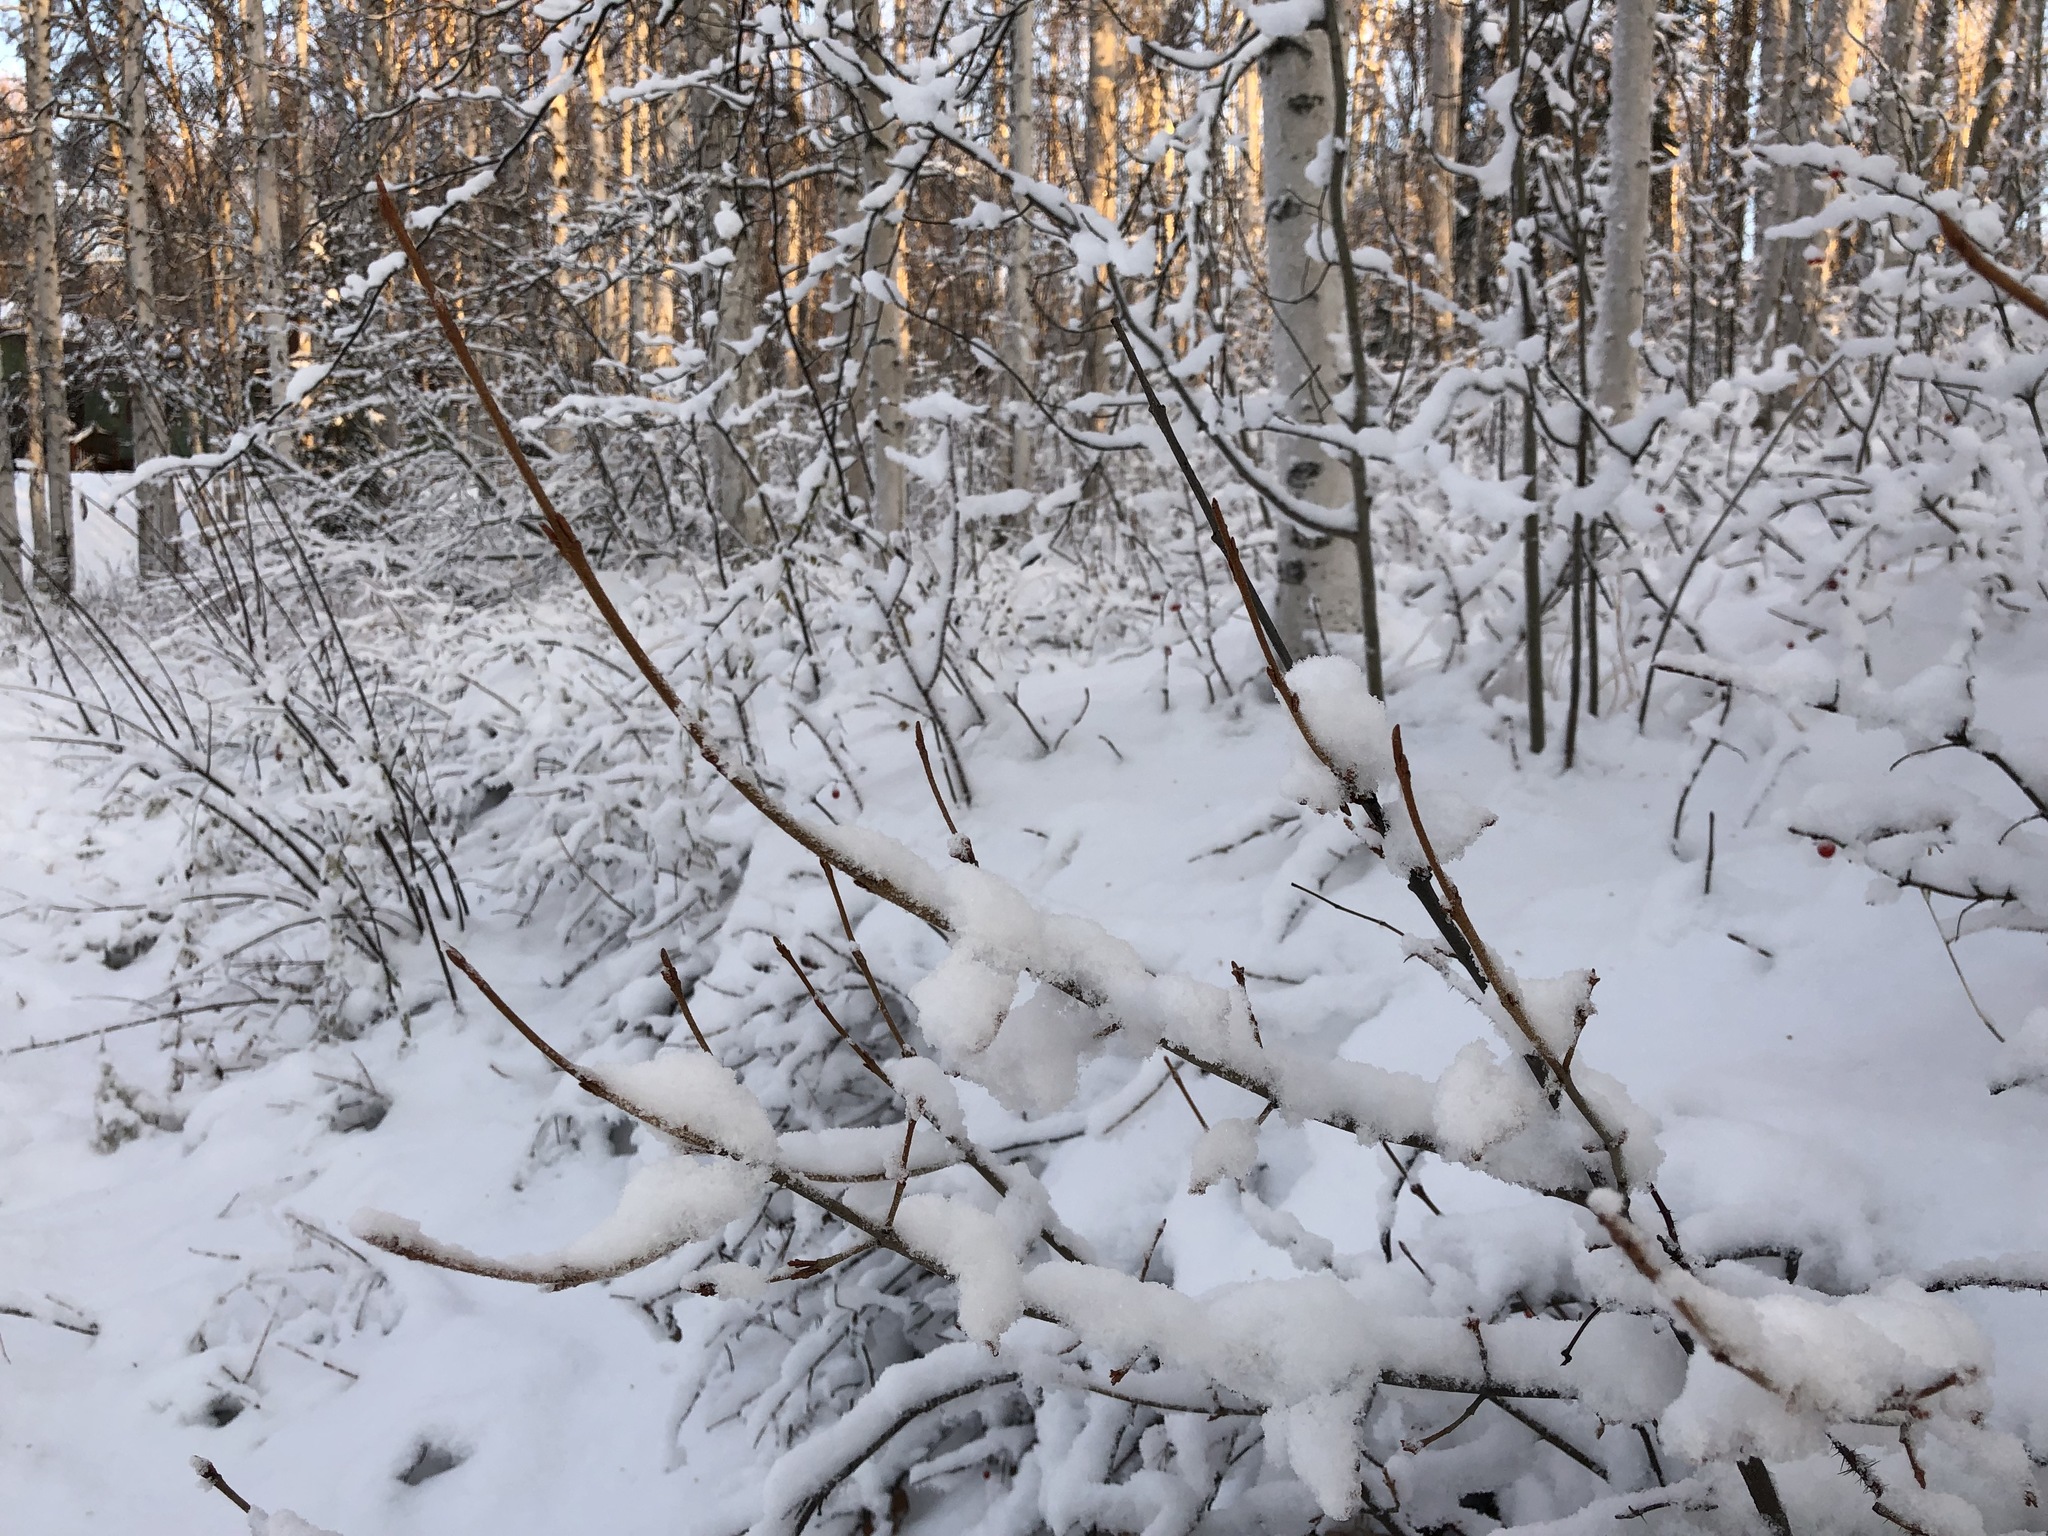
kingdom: Plantae
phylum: Tracheophyta
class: Magnoliopsida
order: Rosales
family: Elaeagnaceae
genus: Shepherdia
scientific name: Shepherdia canadensis
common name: Soapberry
